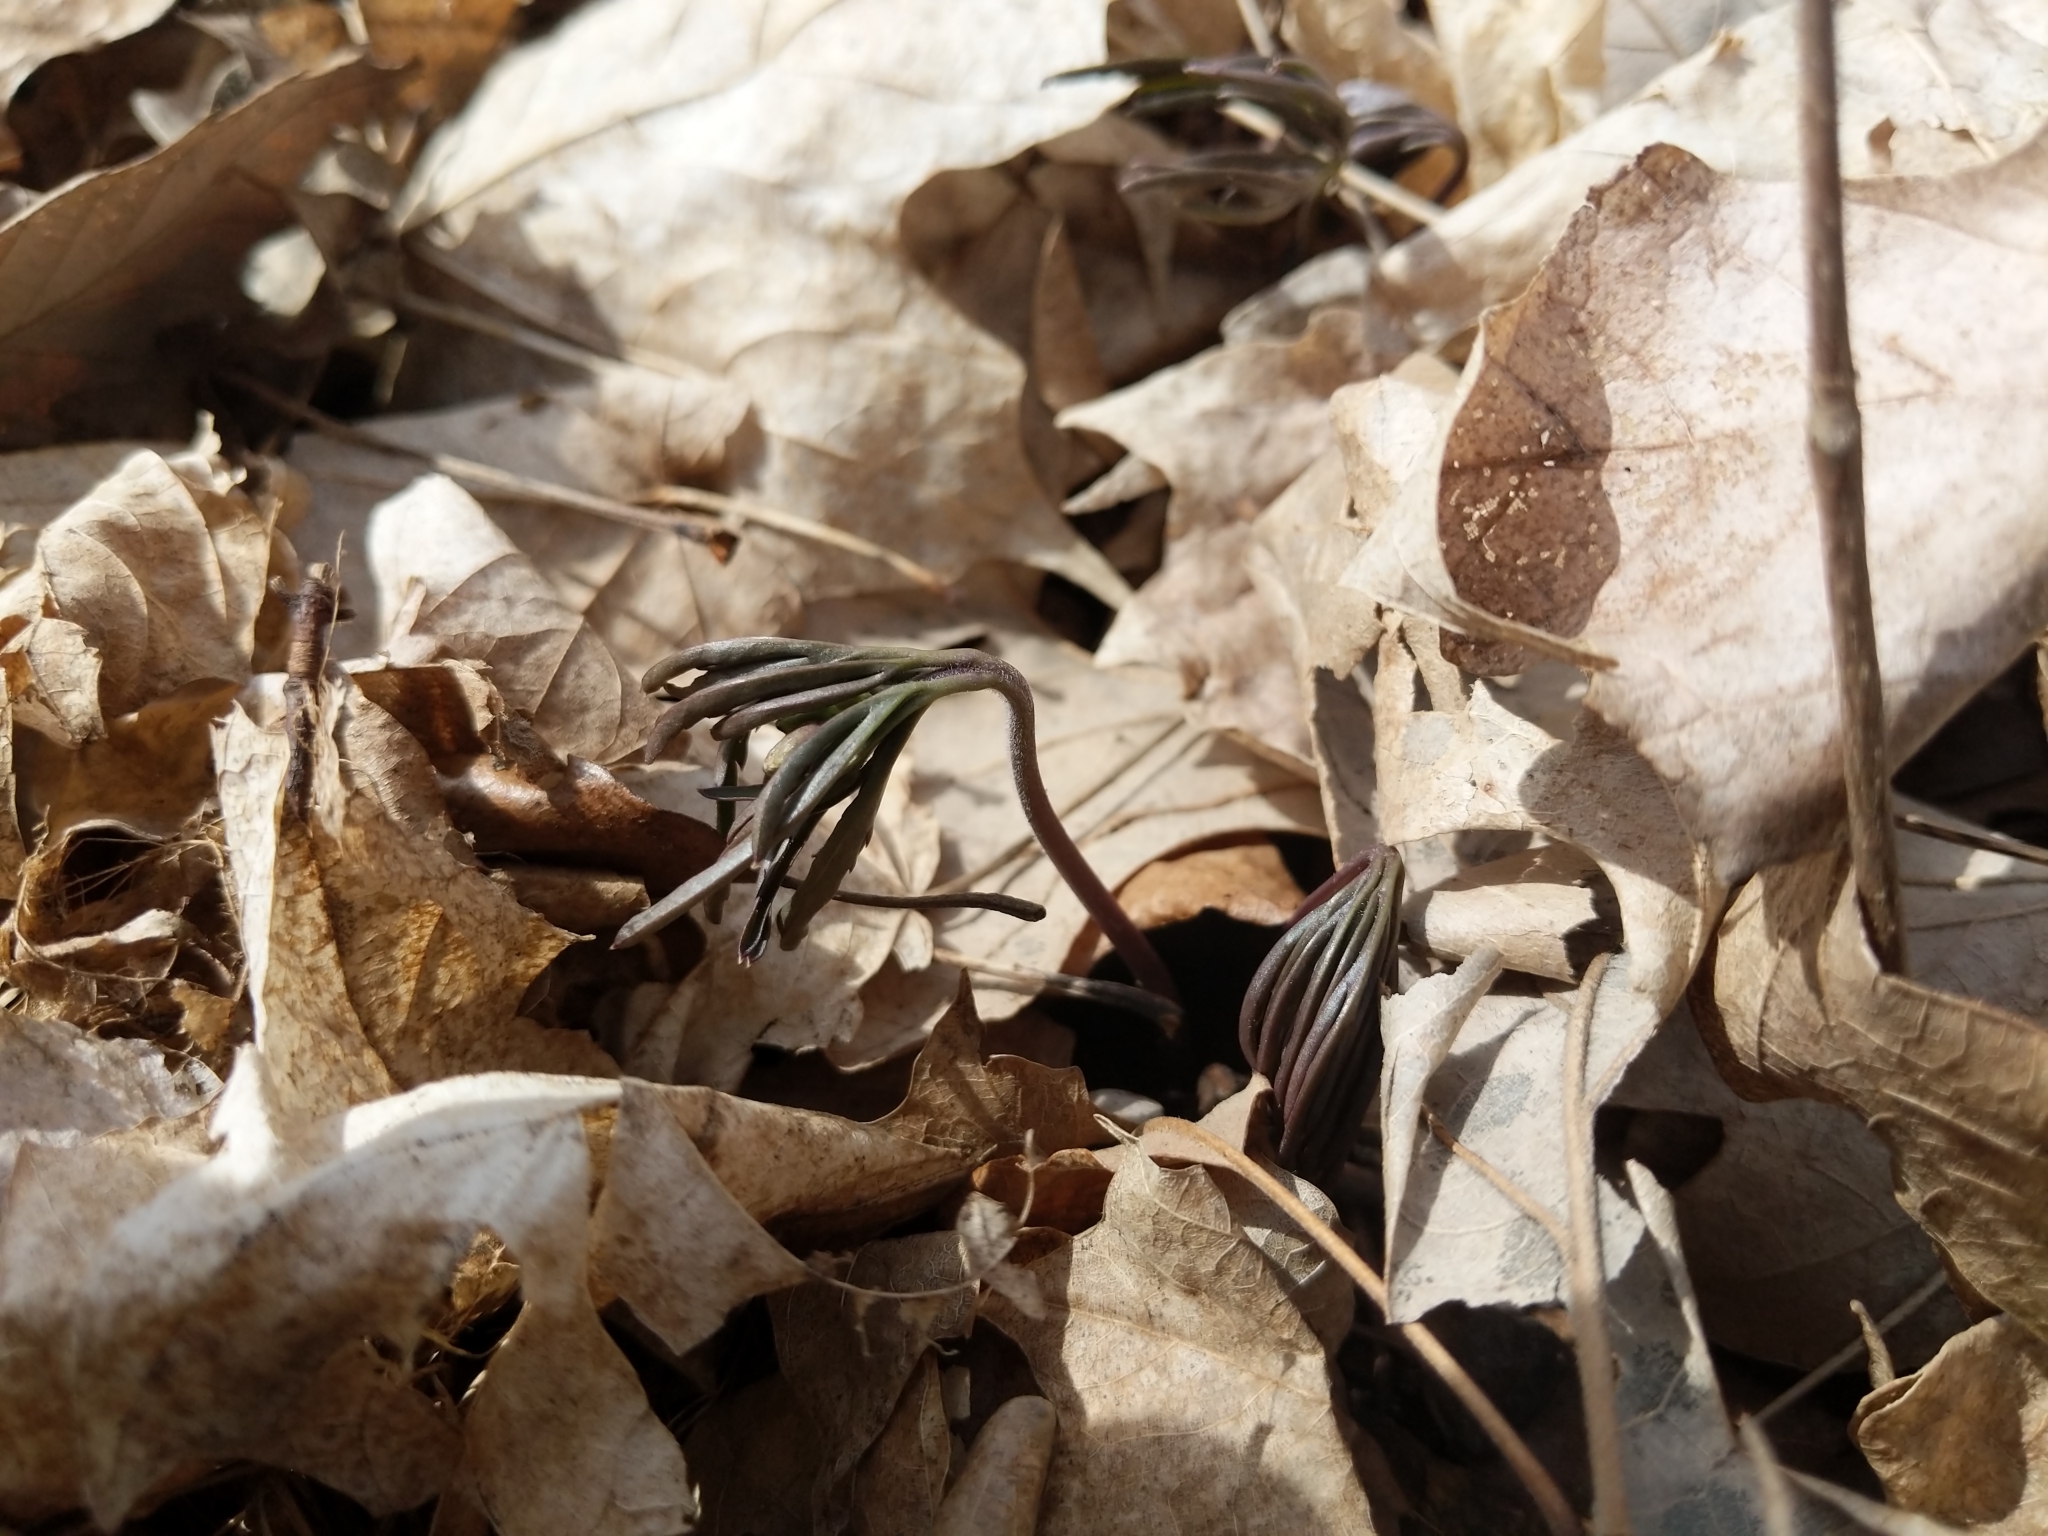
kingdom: Plantae
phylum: Tracheophyta
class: Magnoliopsida
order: Brassicales
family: Brassicaceae
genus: Cardamine
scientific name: Cardamine concatenata
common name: Cut-leaf toothcup
